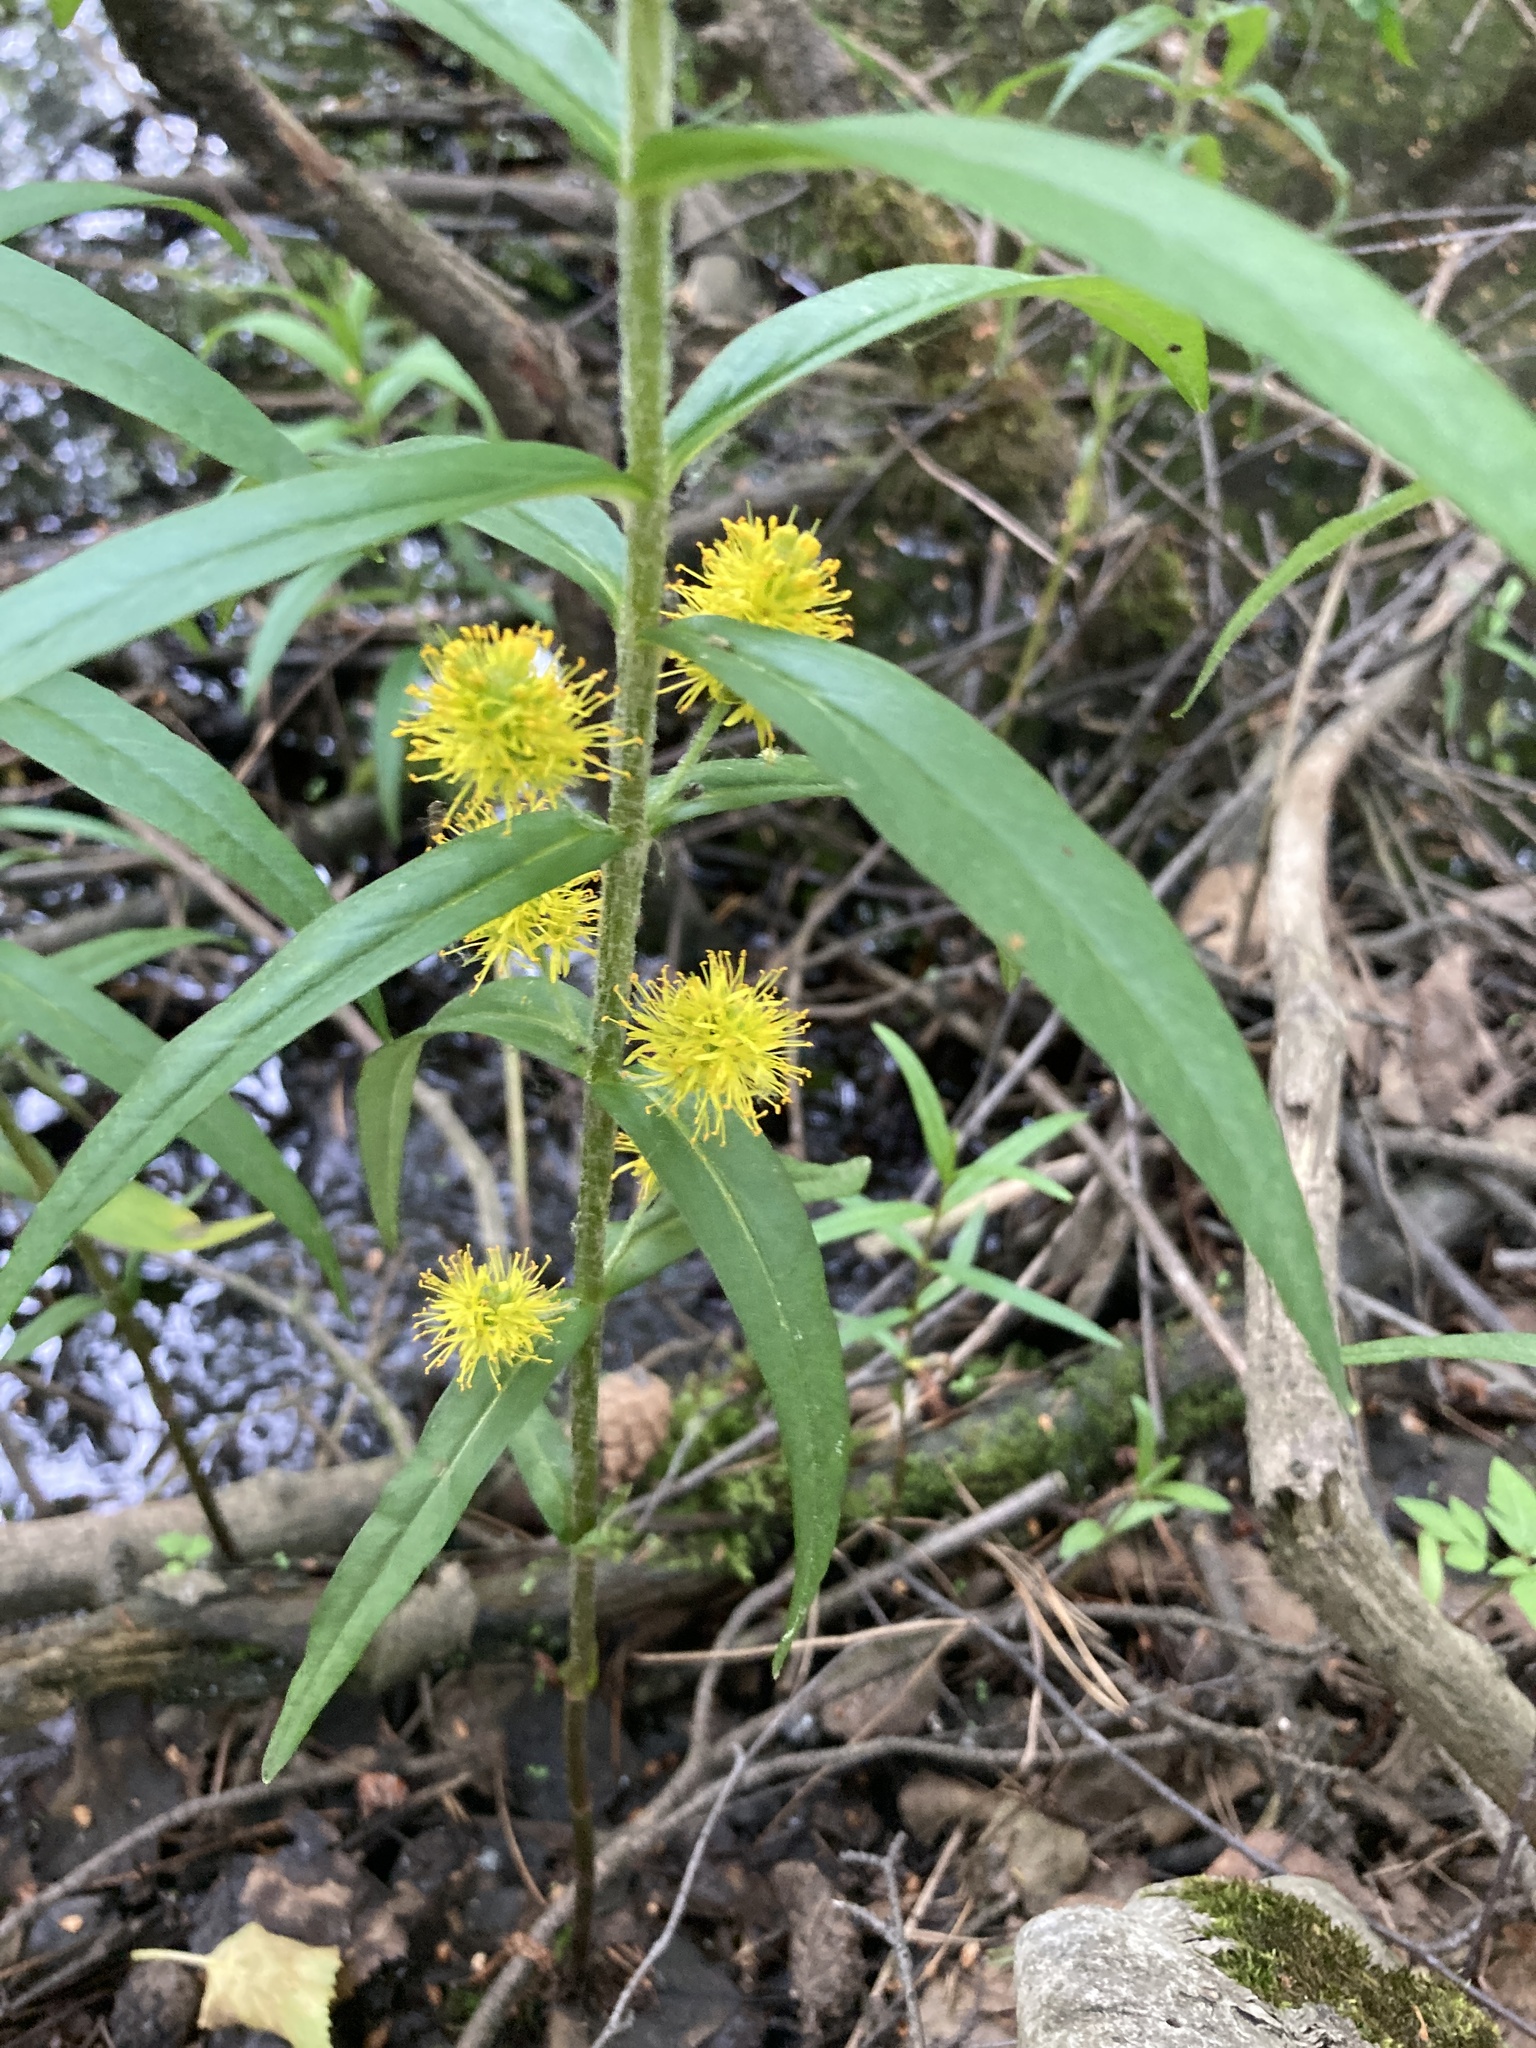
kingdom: Plantae
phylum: Tracheophyta
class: Magnoliopsida
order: Ericales
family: Primulaceae
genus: Lysimachia
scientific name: Lysimachia thyrsiflora
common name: Tufted loosestrife
